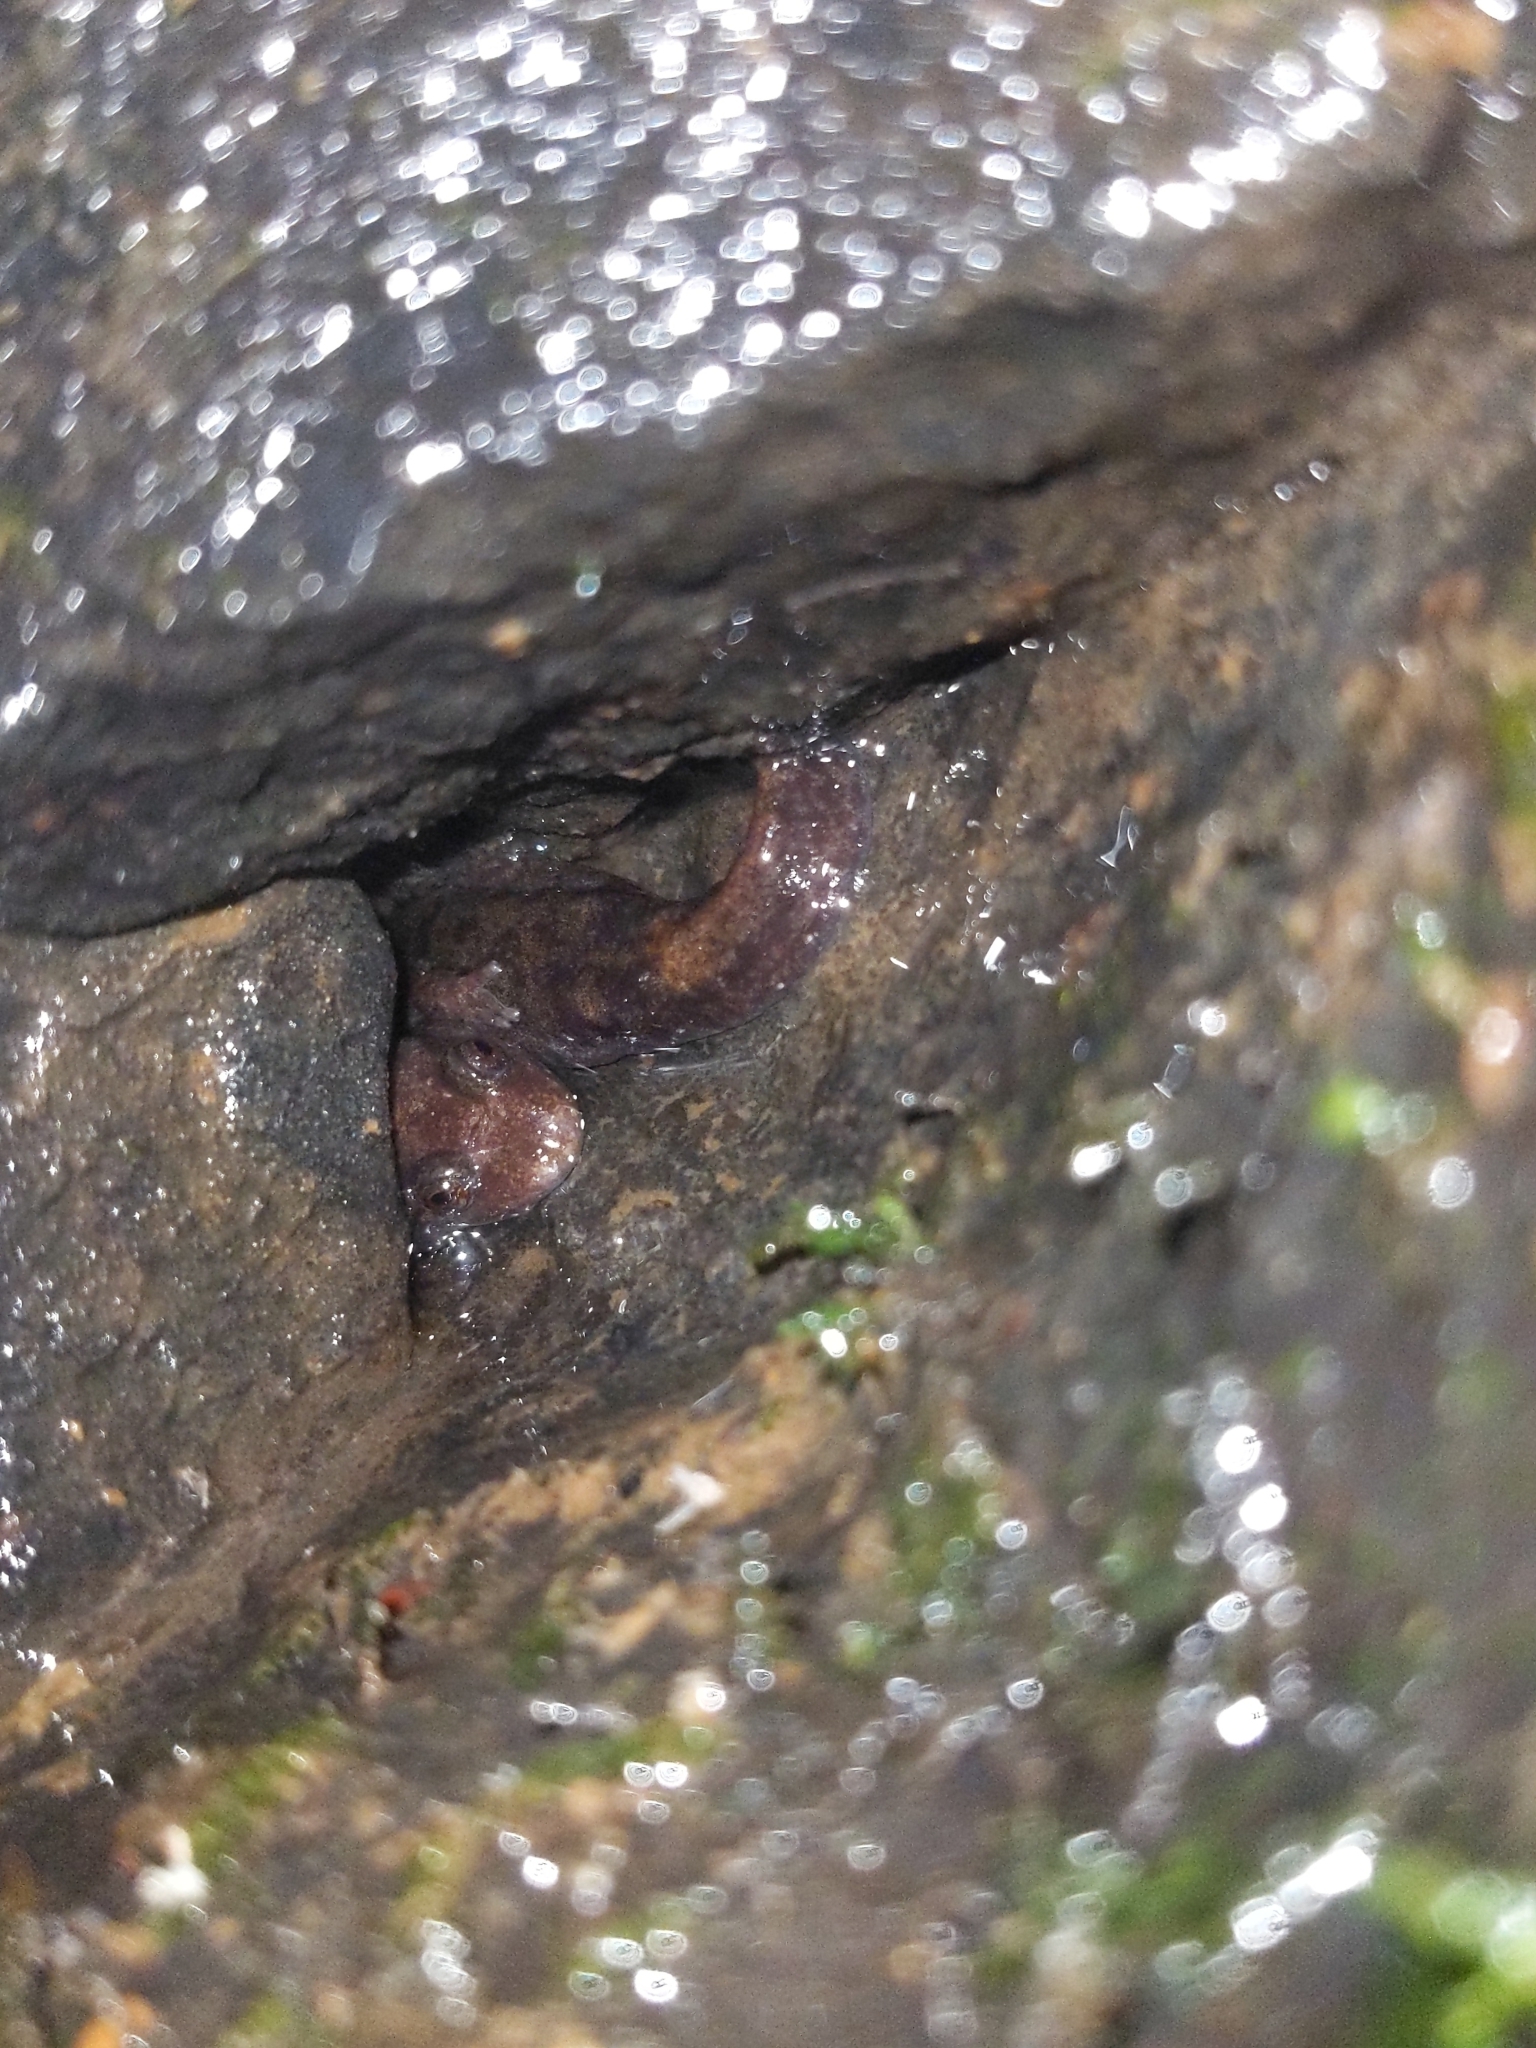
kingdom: Animalia
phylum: Chordata
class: Amphibia
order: Caudata
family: Plethodontidae
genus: Desmognathus
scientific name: Desmognathus monticola
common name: Seal salamander
